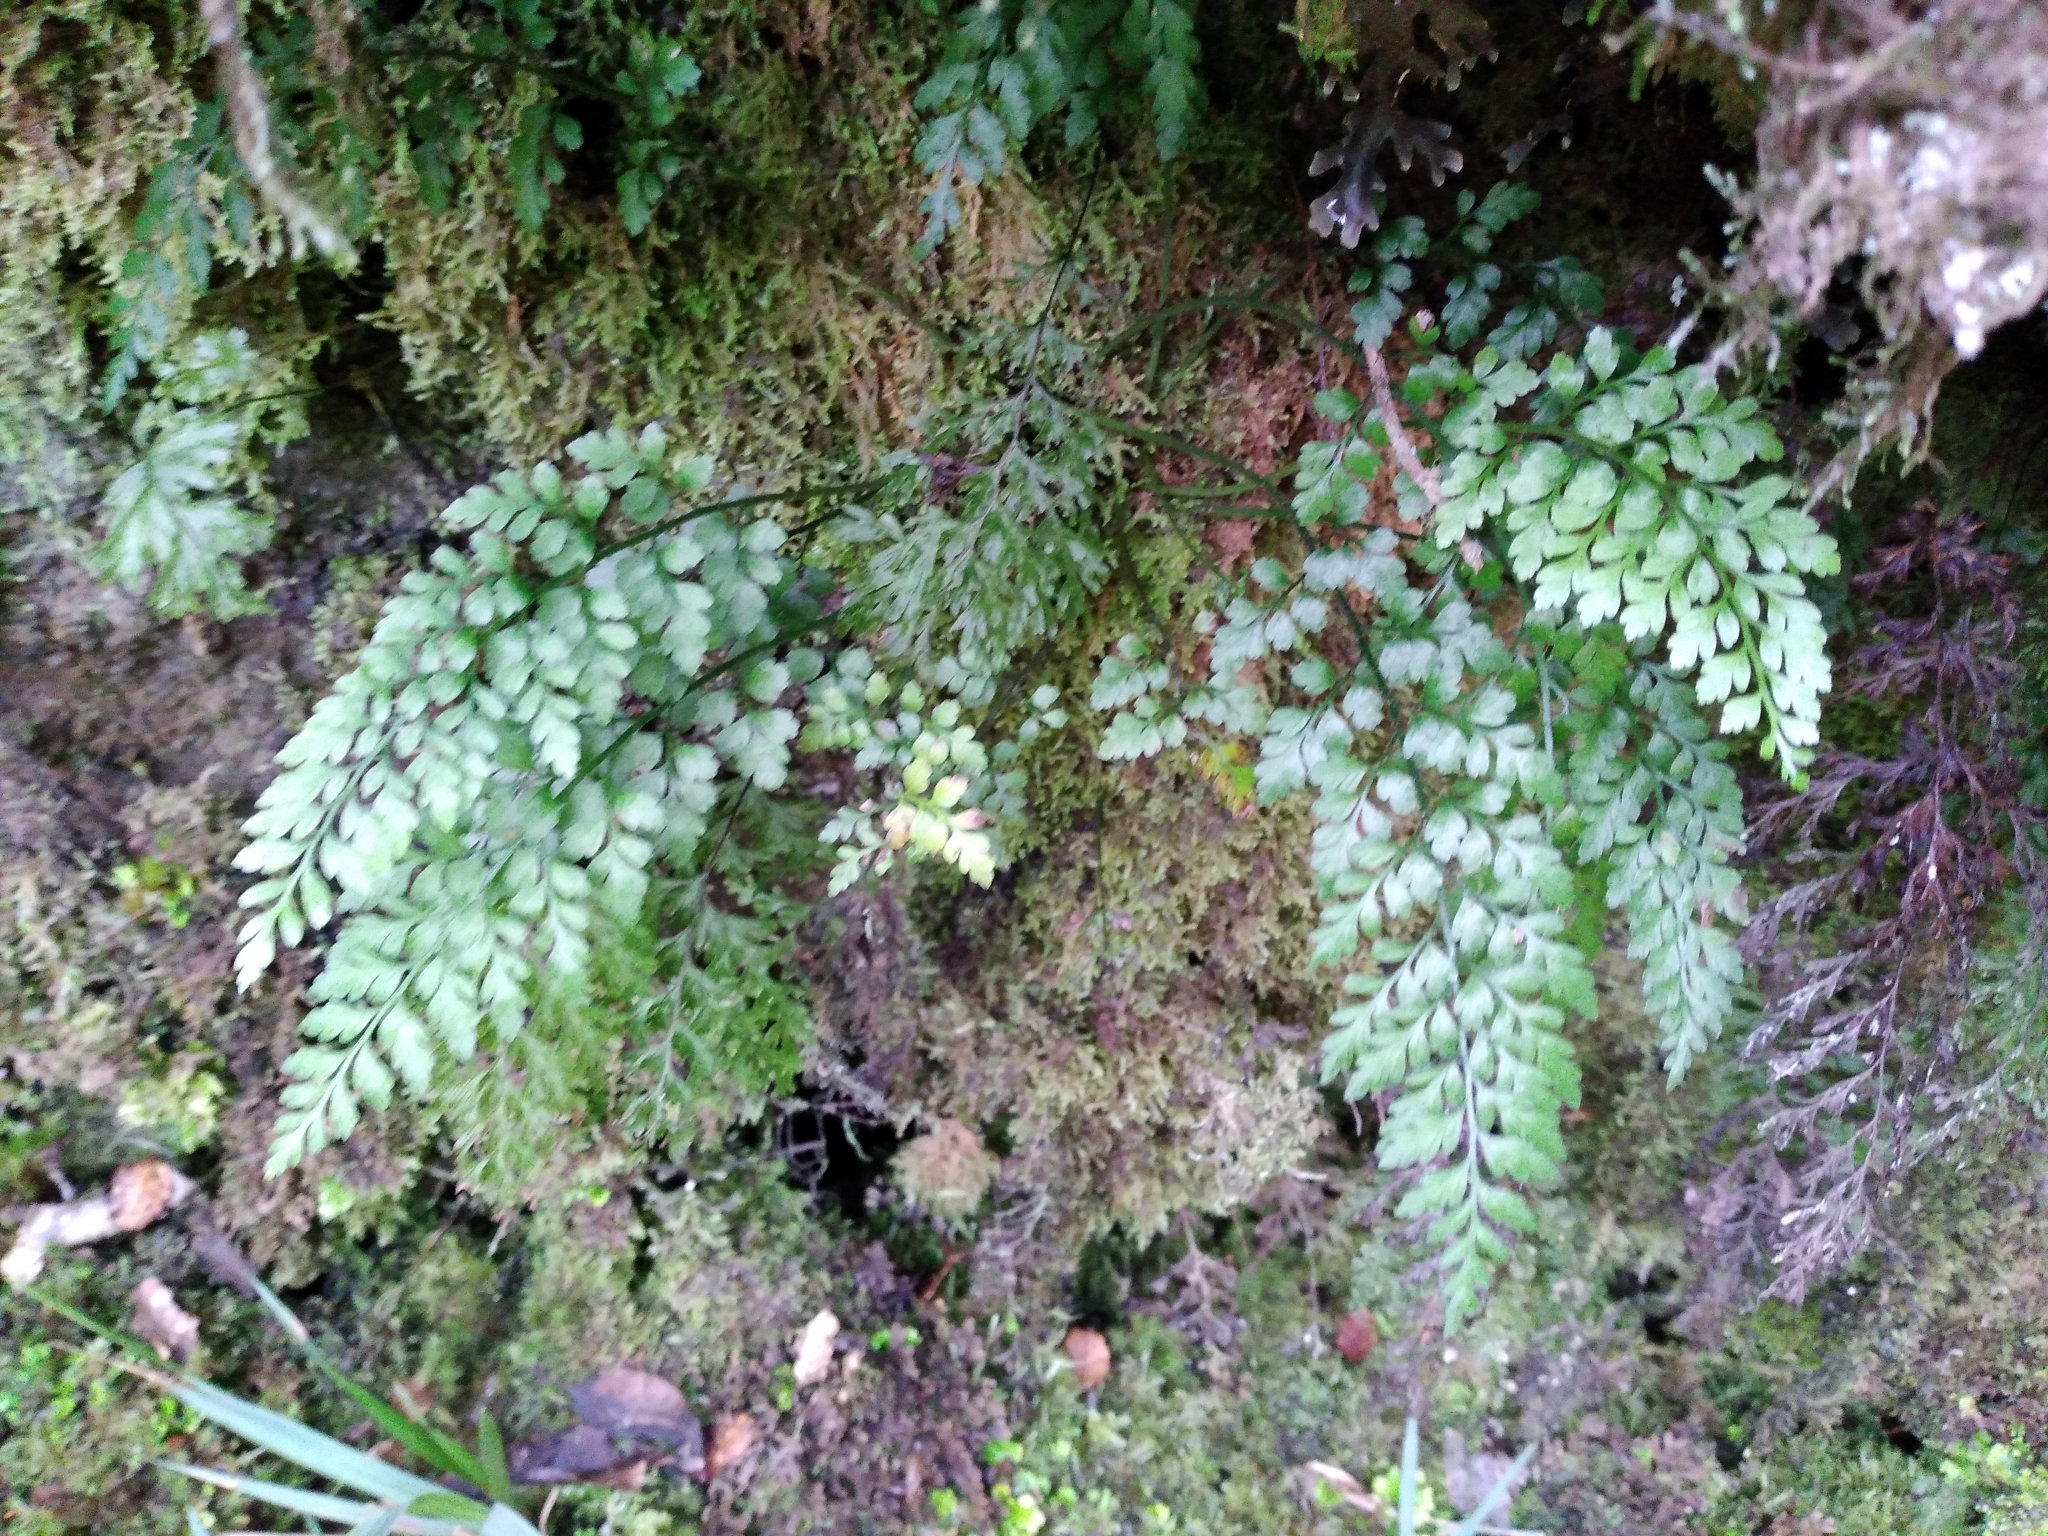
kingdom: Plantae
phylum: Tracheophyta
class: Polypodiopsida
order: Polypodiales
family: Aspleniaceae
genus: Asplenium
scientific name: Asplenium hookerianum
